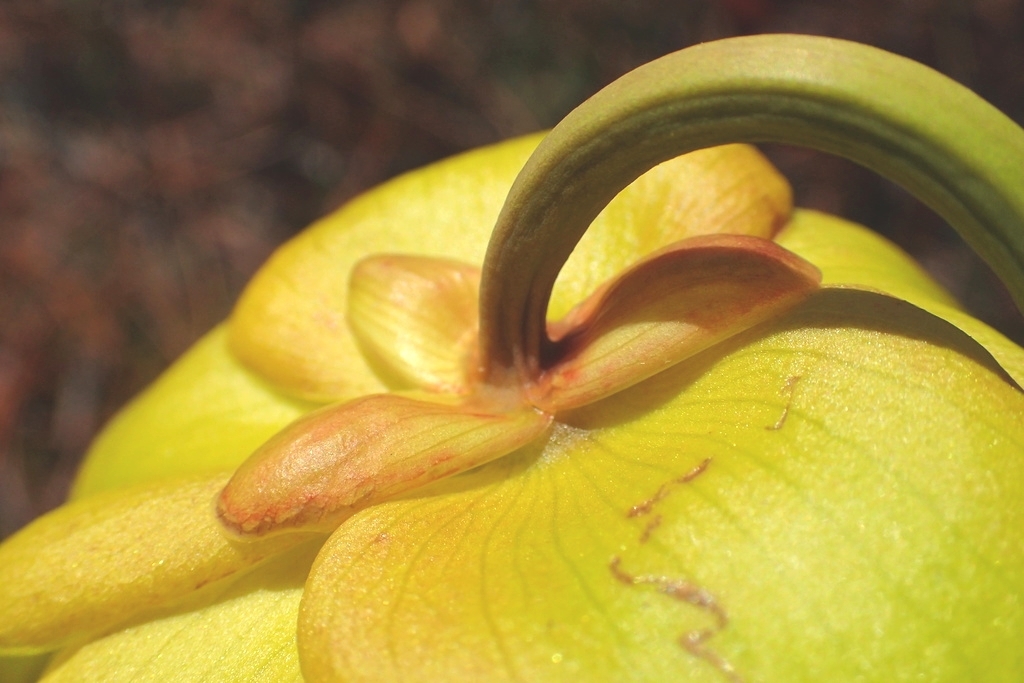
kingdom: Plantae
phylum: Tracheophyta
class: Magnoliopsida
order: Ericales
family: Sarraceniaceae
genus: Sarracenia
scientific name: Sarracenia flava
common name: Trumpets
